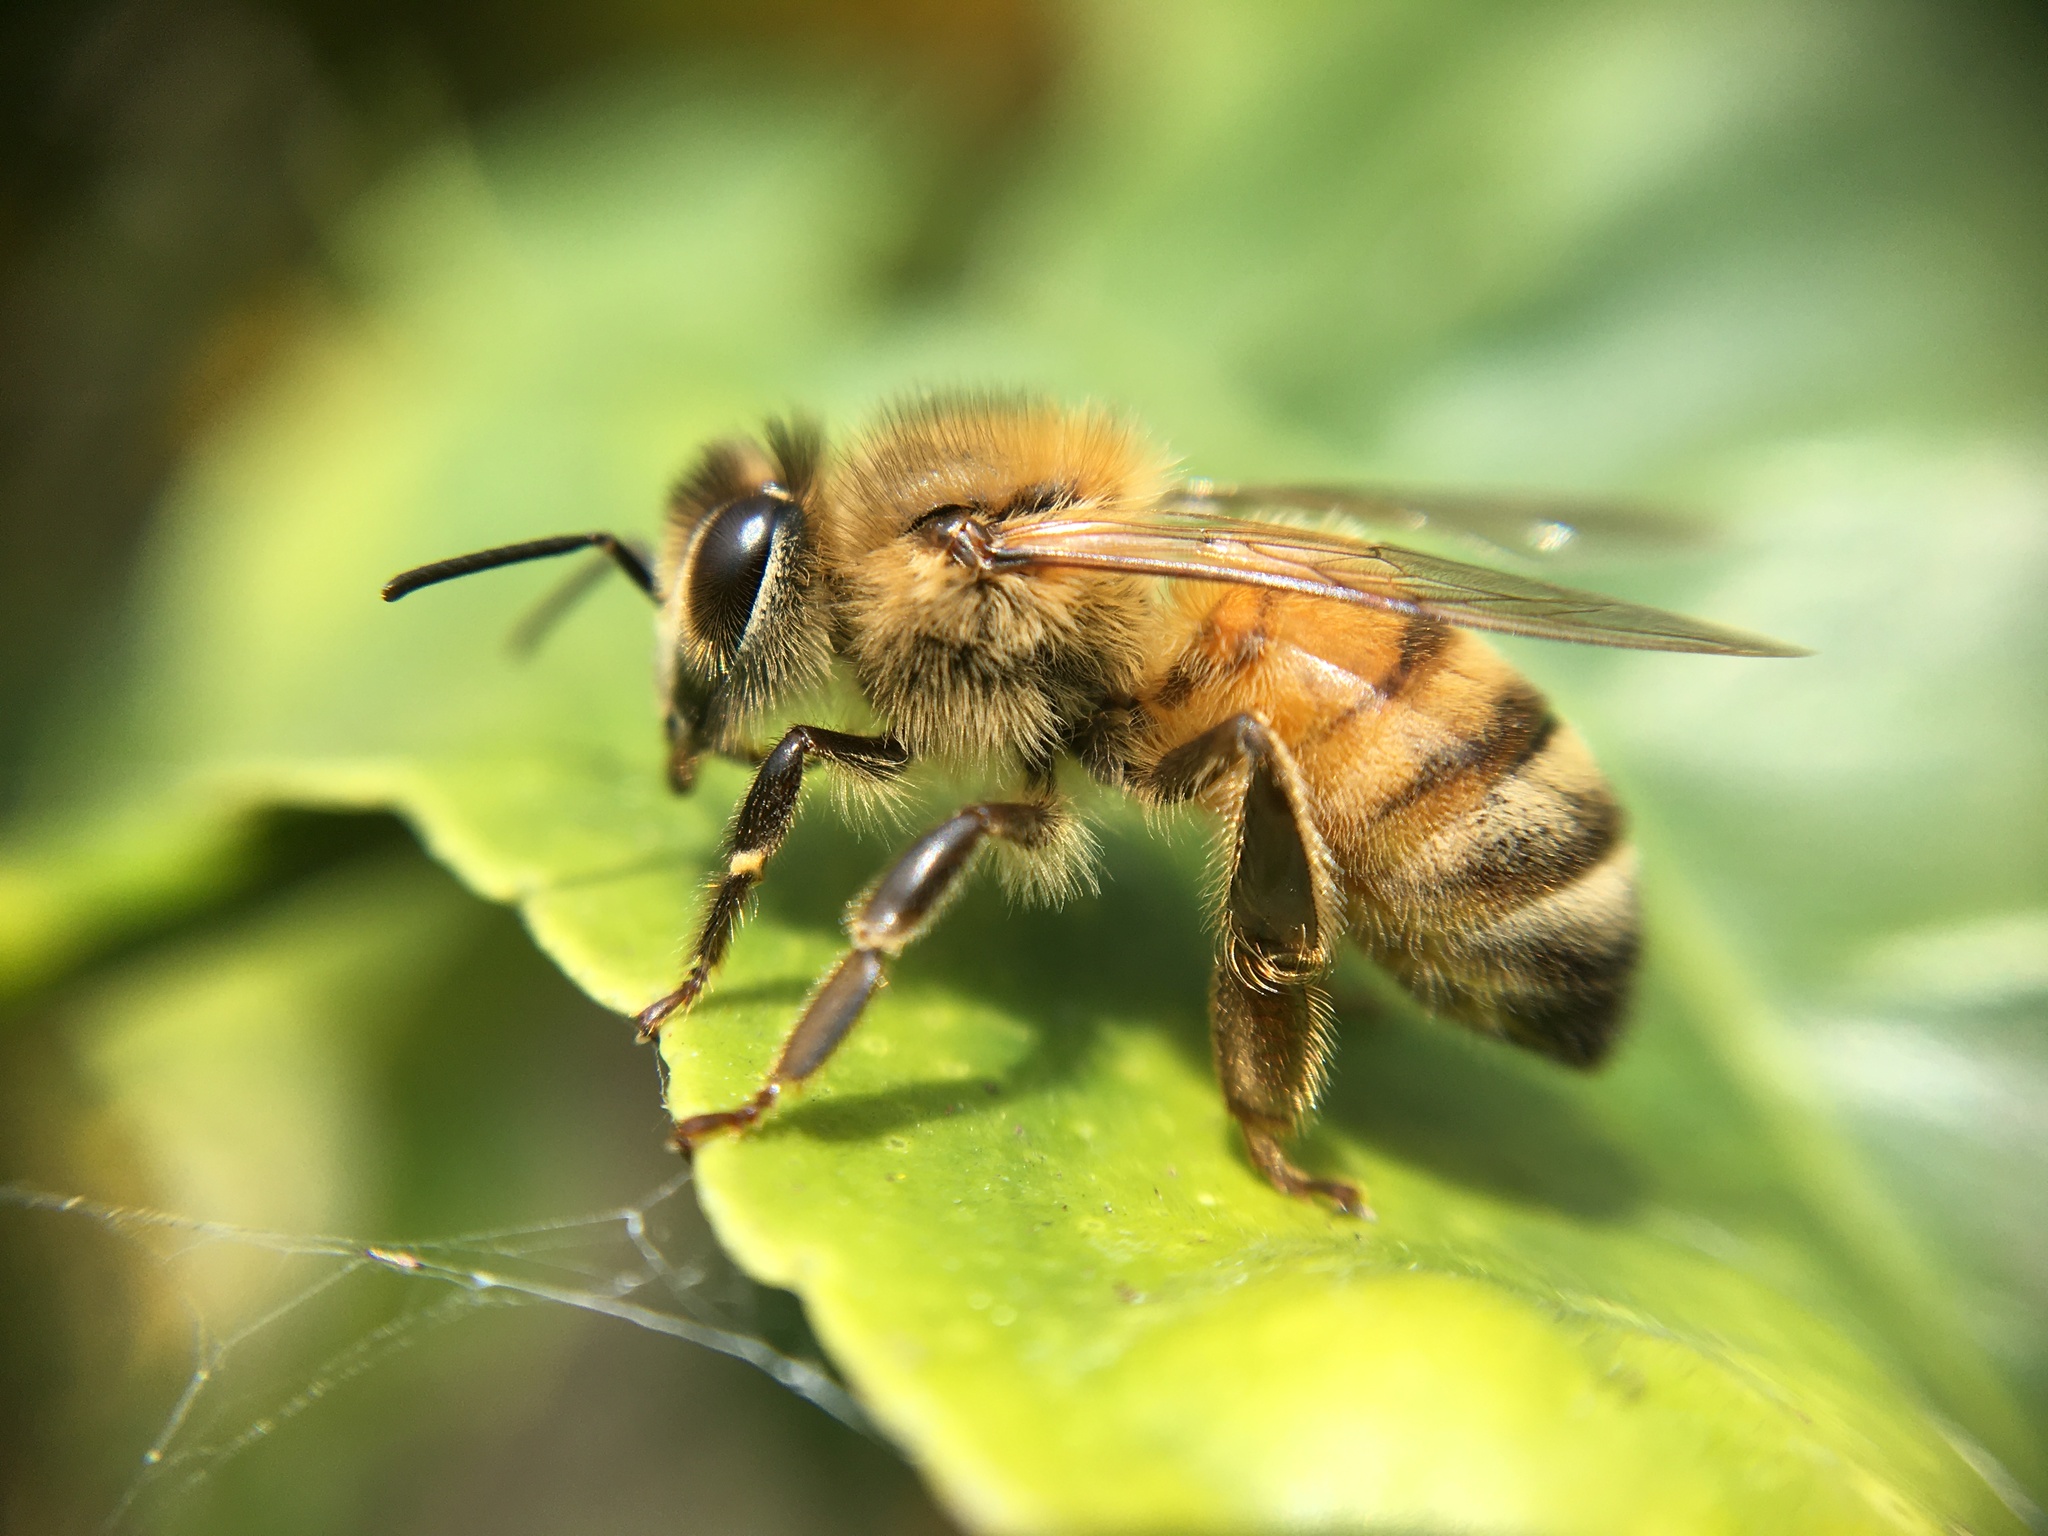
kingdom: Animalia
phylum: Arthropoda
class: Insecta
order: Hymenoptera
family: Apidae
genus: Apis
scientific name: Apis mellifera
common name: Honey bee
